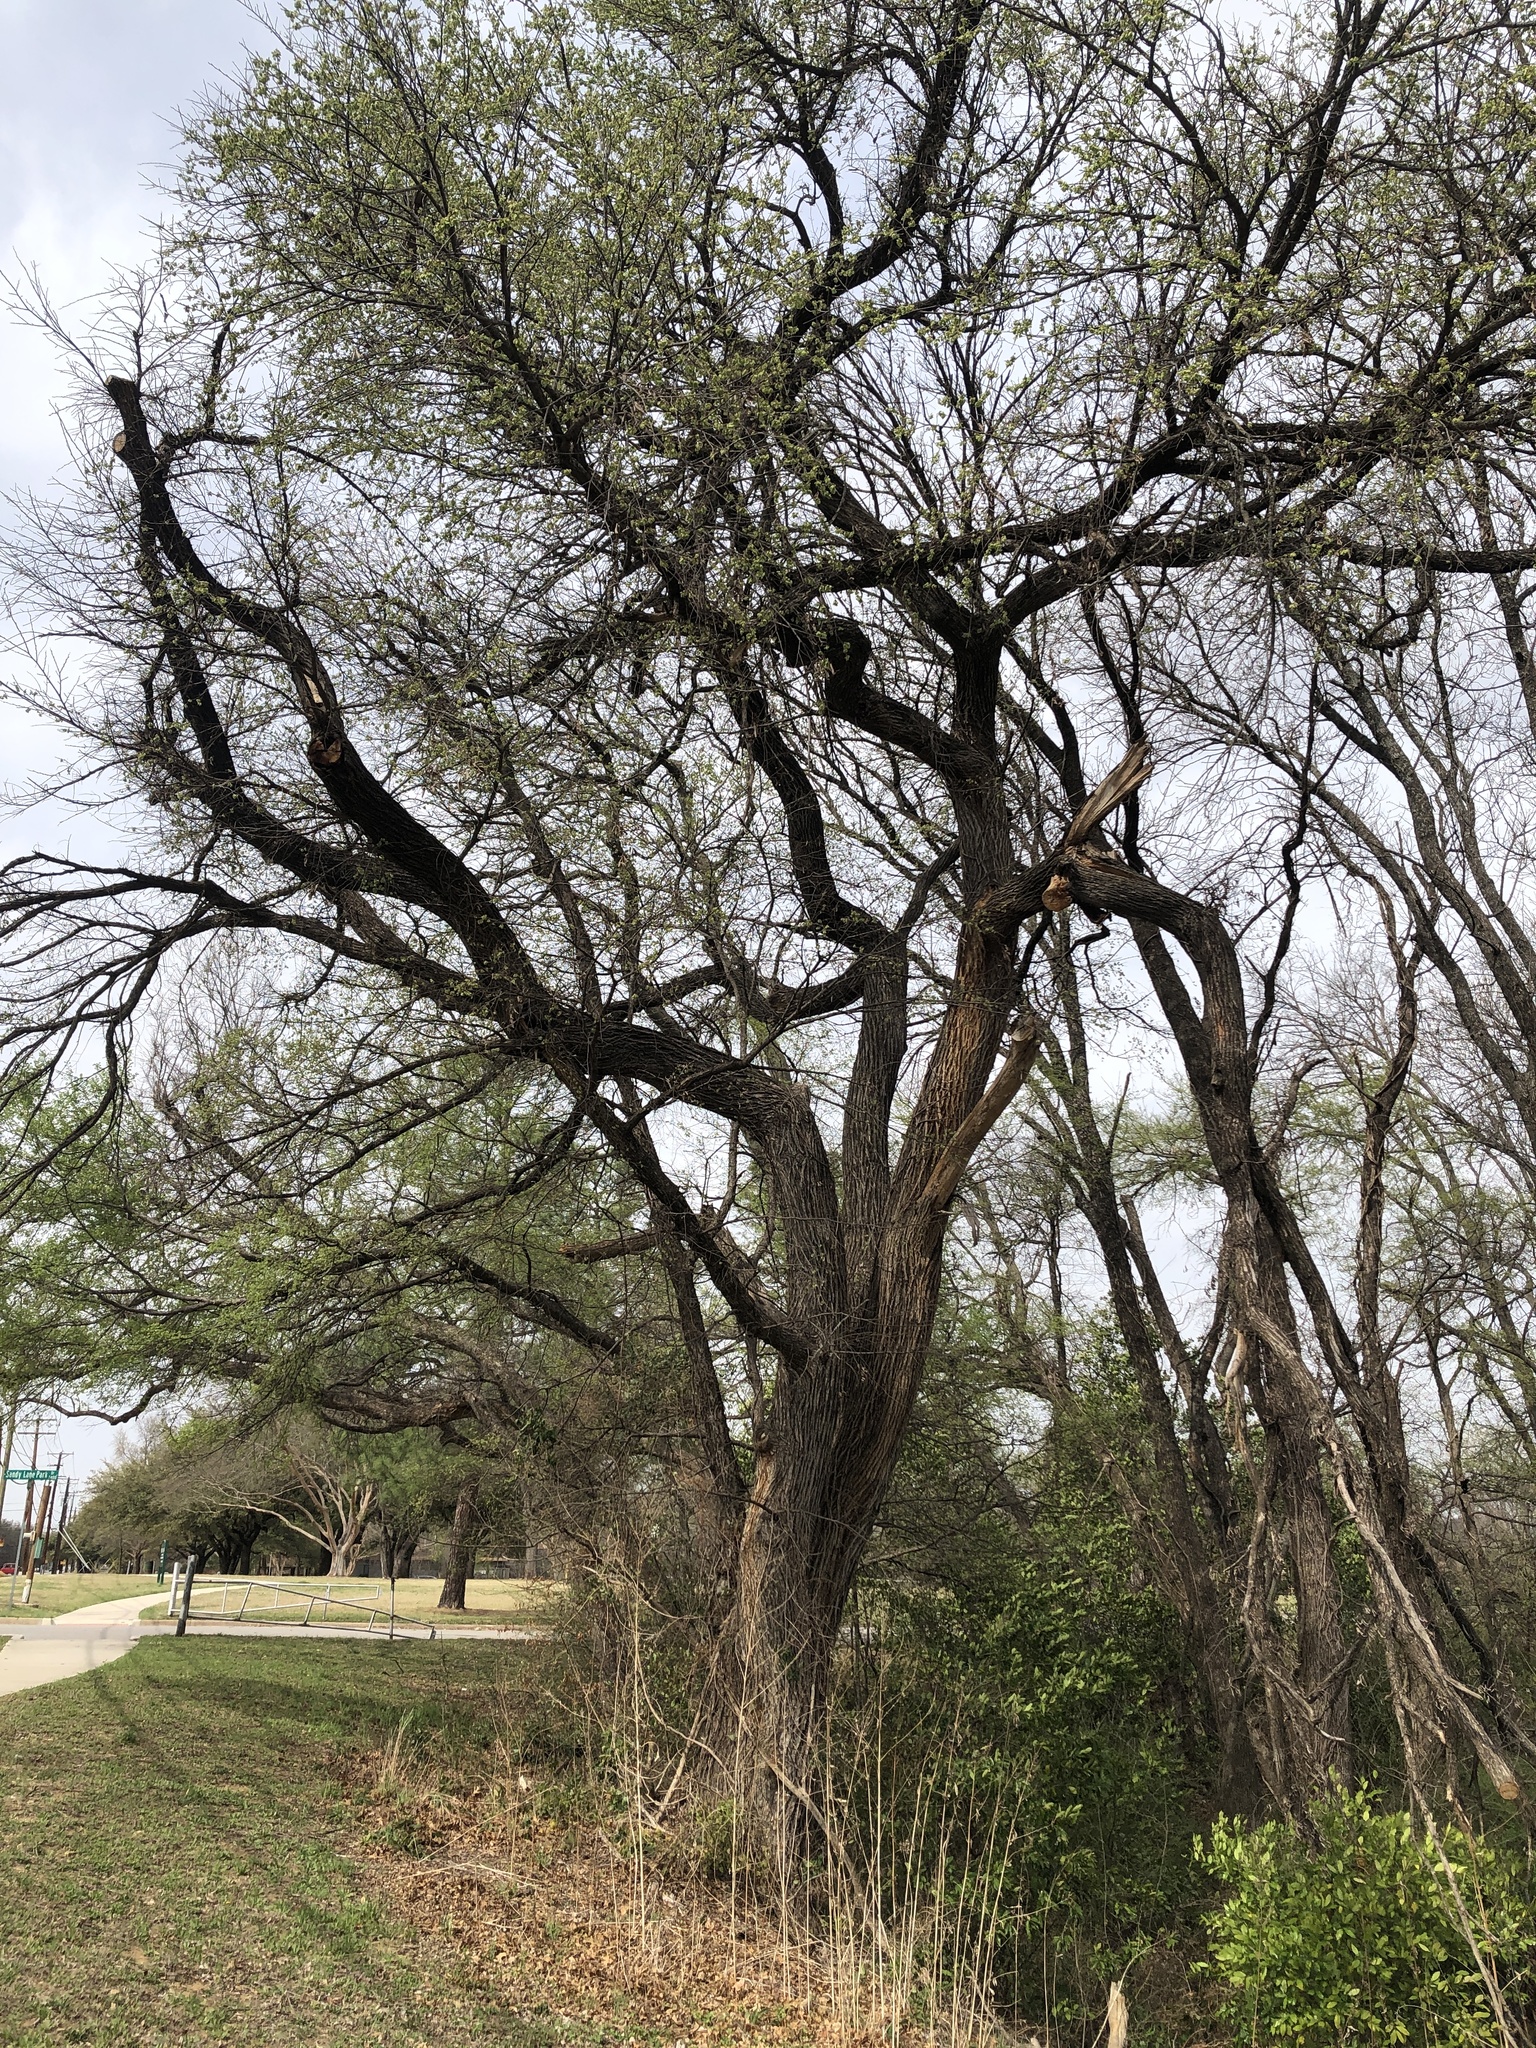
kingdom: Plantae
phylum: Tracheophyta
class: Magnoliopsida
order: Rosales
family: Ulmaceae
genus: Ulmus
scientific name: Ulmus americana
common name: American elm
